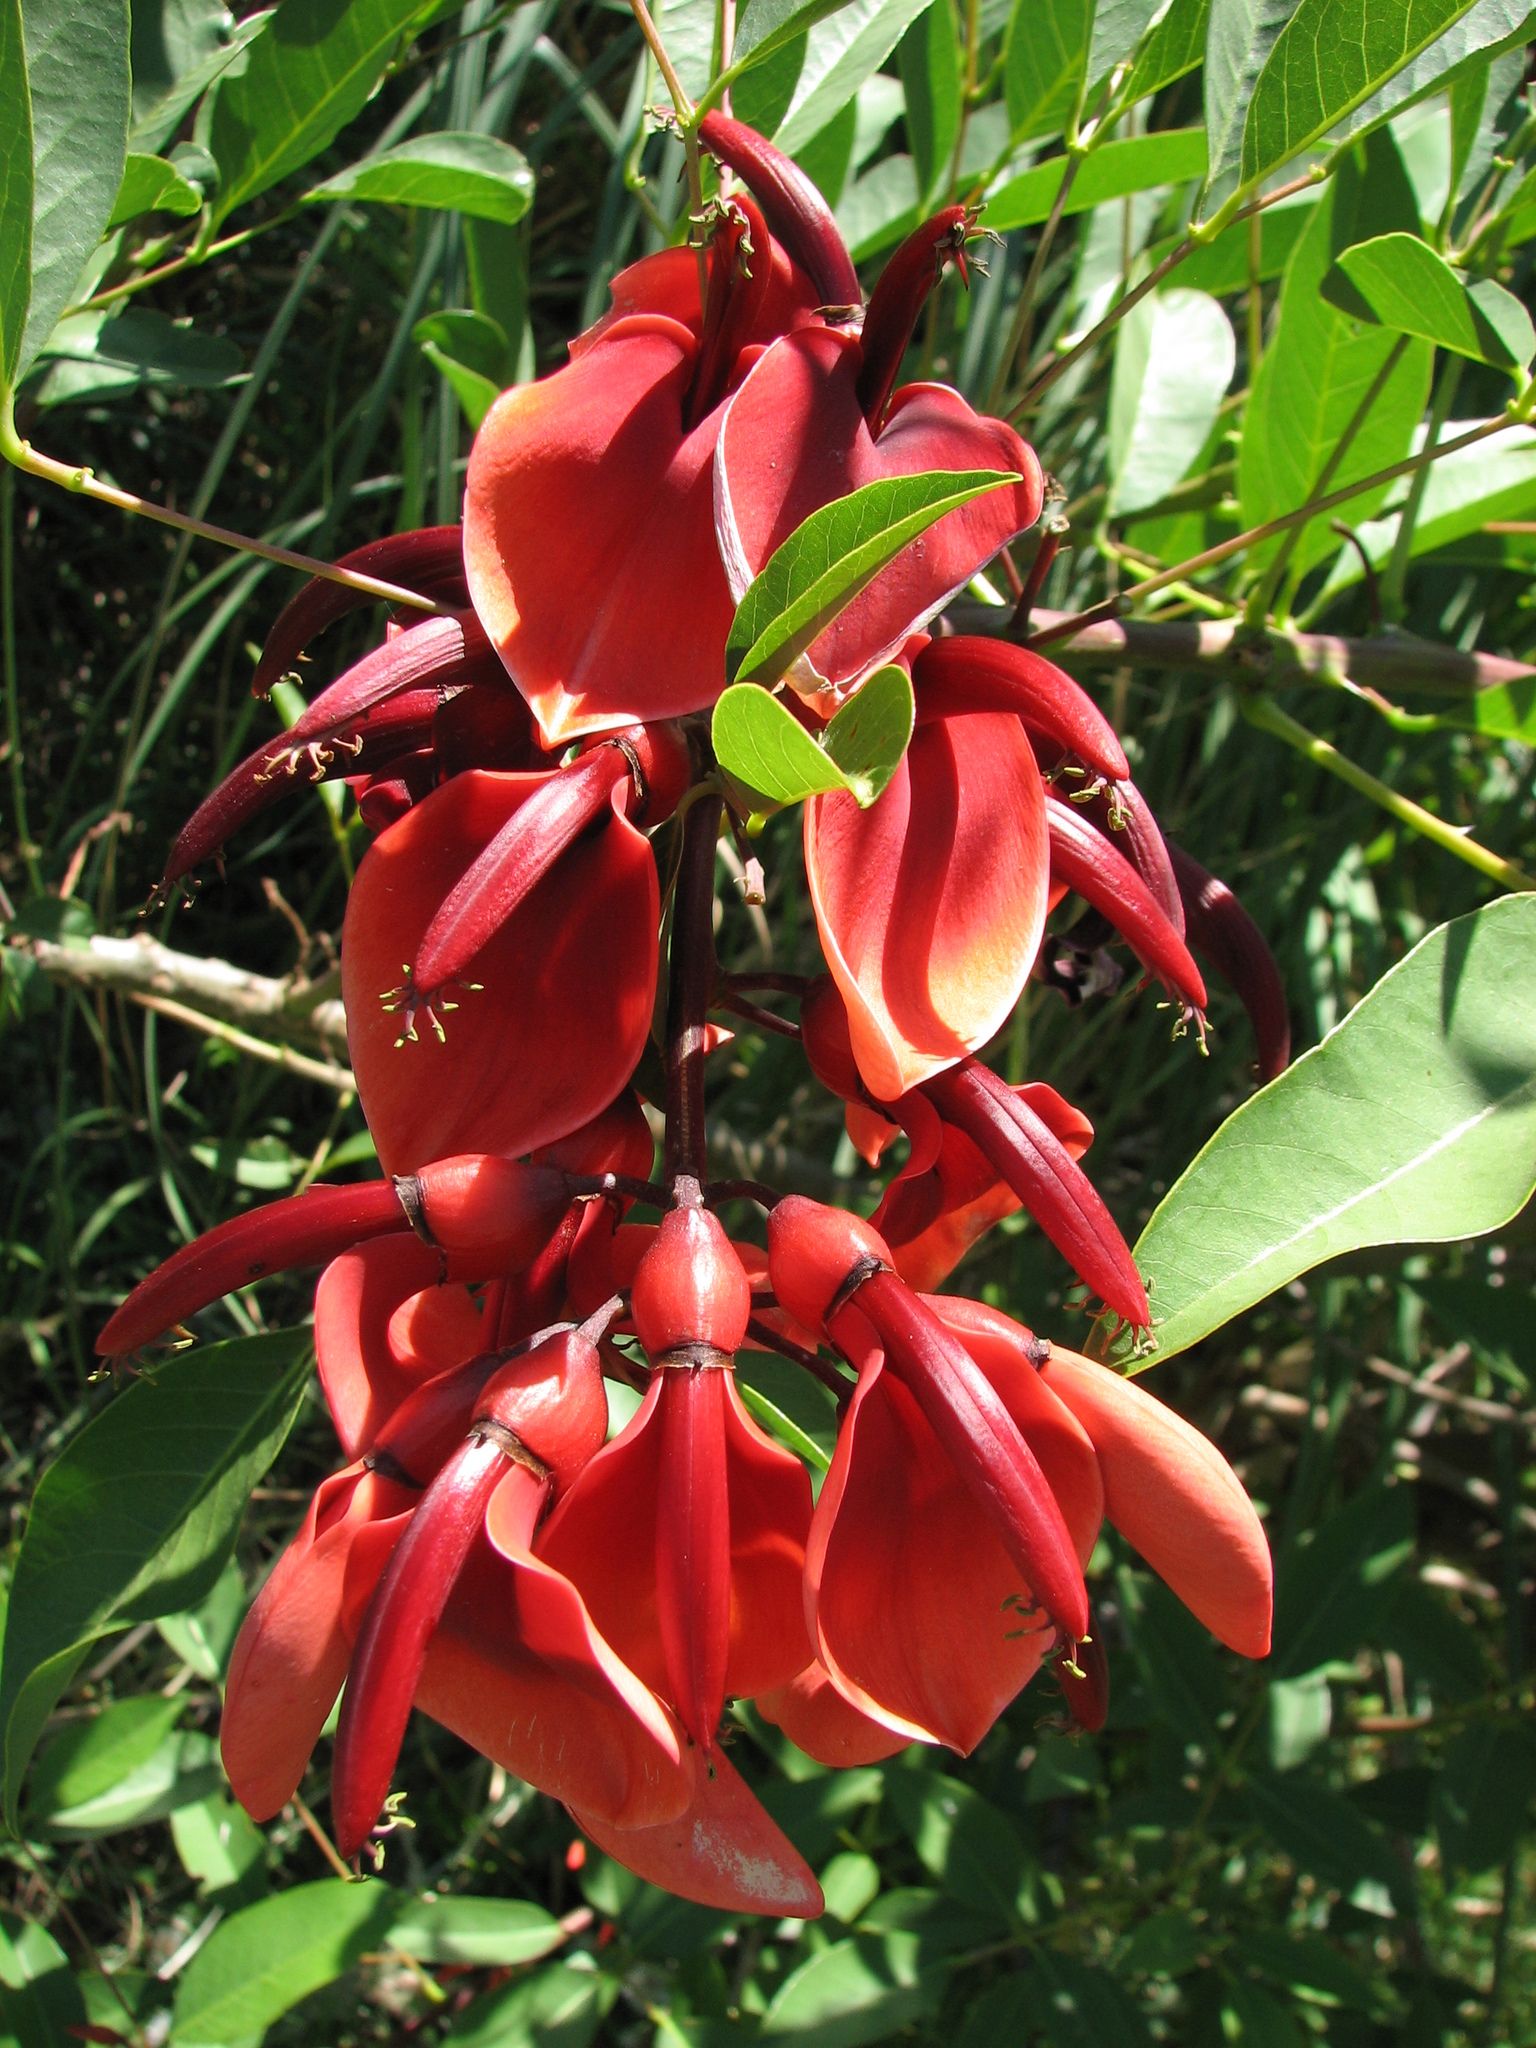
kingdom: Plantae
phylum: Tracheophyta
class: Magnoliopsida
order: Fabales
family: Fabaceae
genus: Erythrina
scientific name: Erythrina crista-galli
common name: Cockspur coral tree
